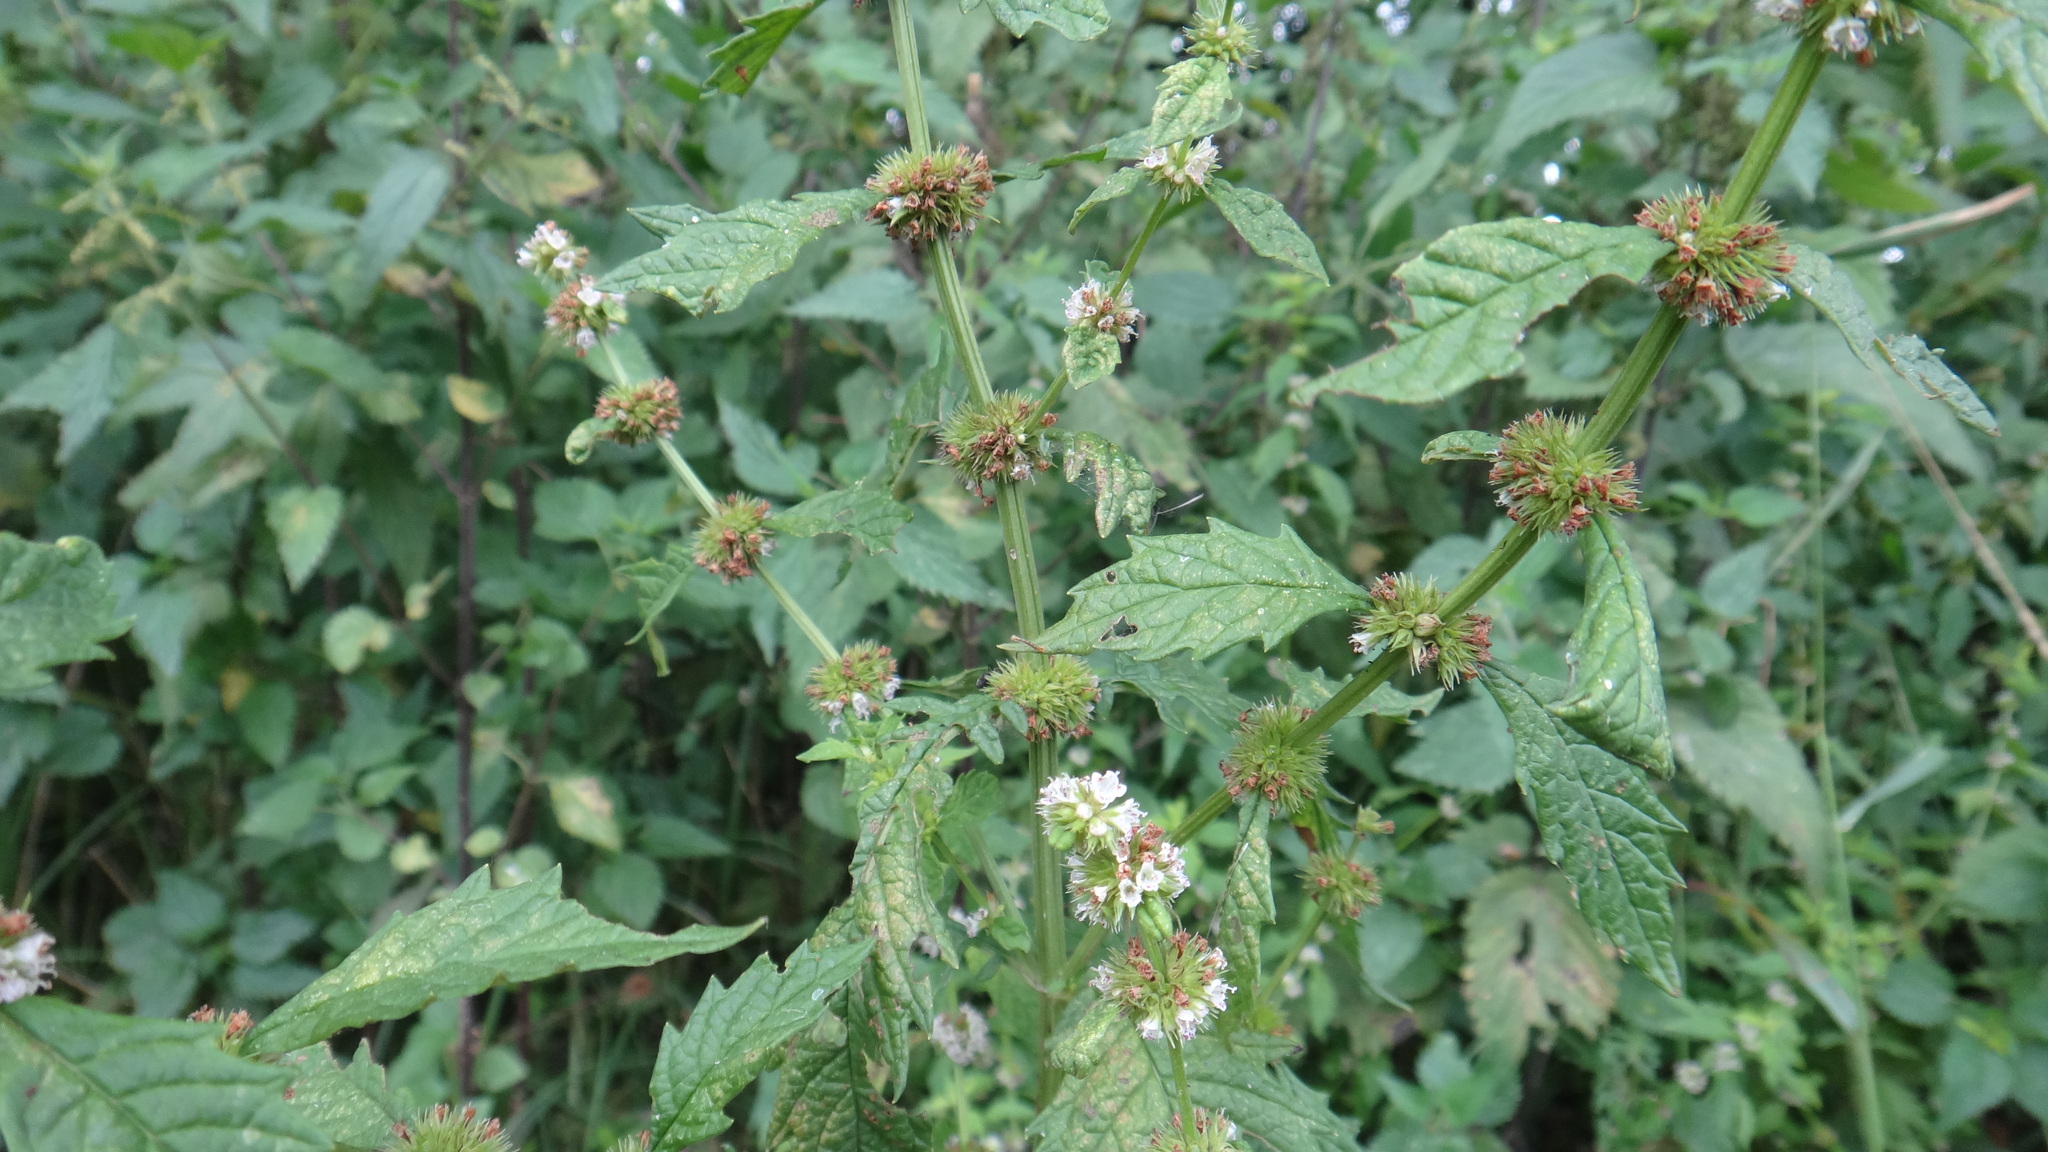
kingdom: Plantae
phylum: Tracheophyta
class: Magnoliopsida
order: Lamiales
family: Lamiaceae
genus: Lycopus
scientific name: Lycopus europaeus
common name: European bugleweed
